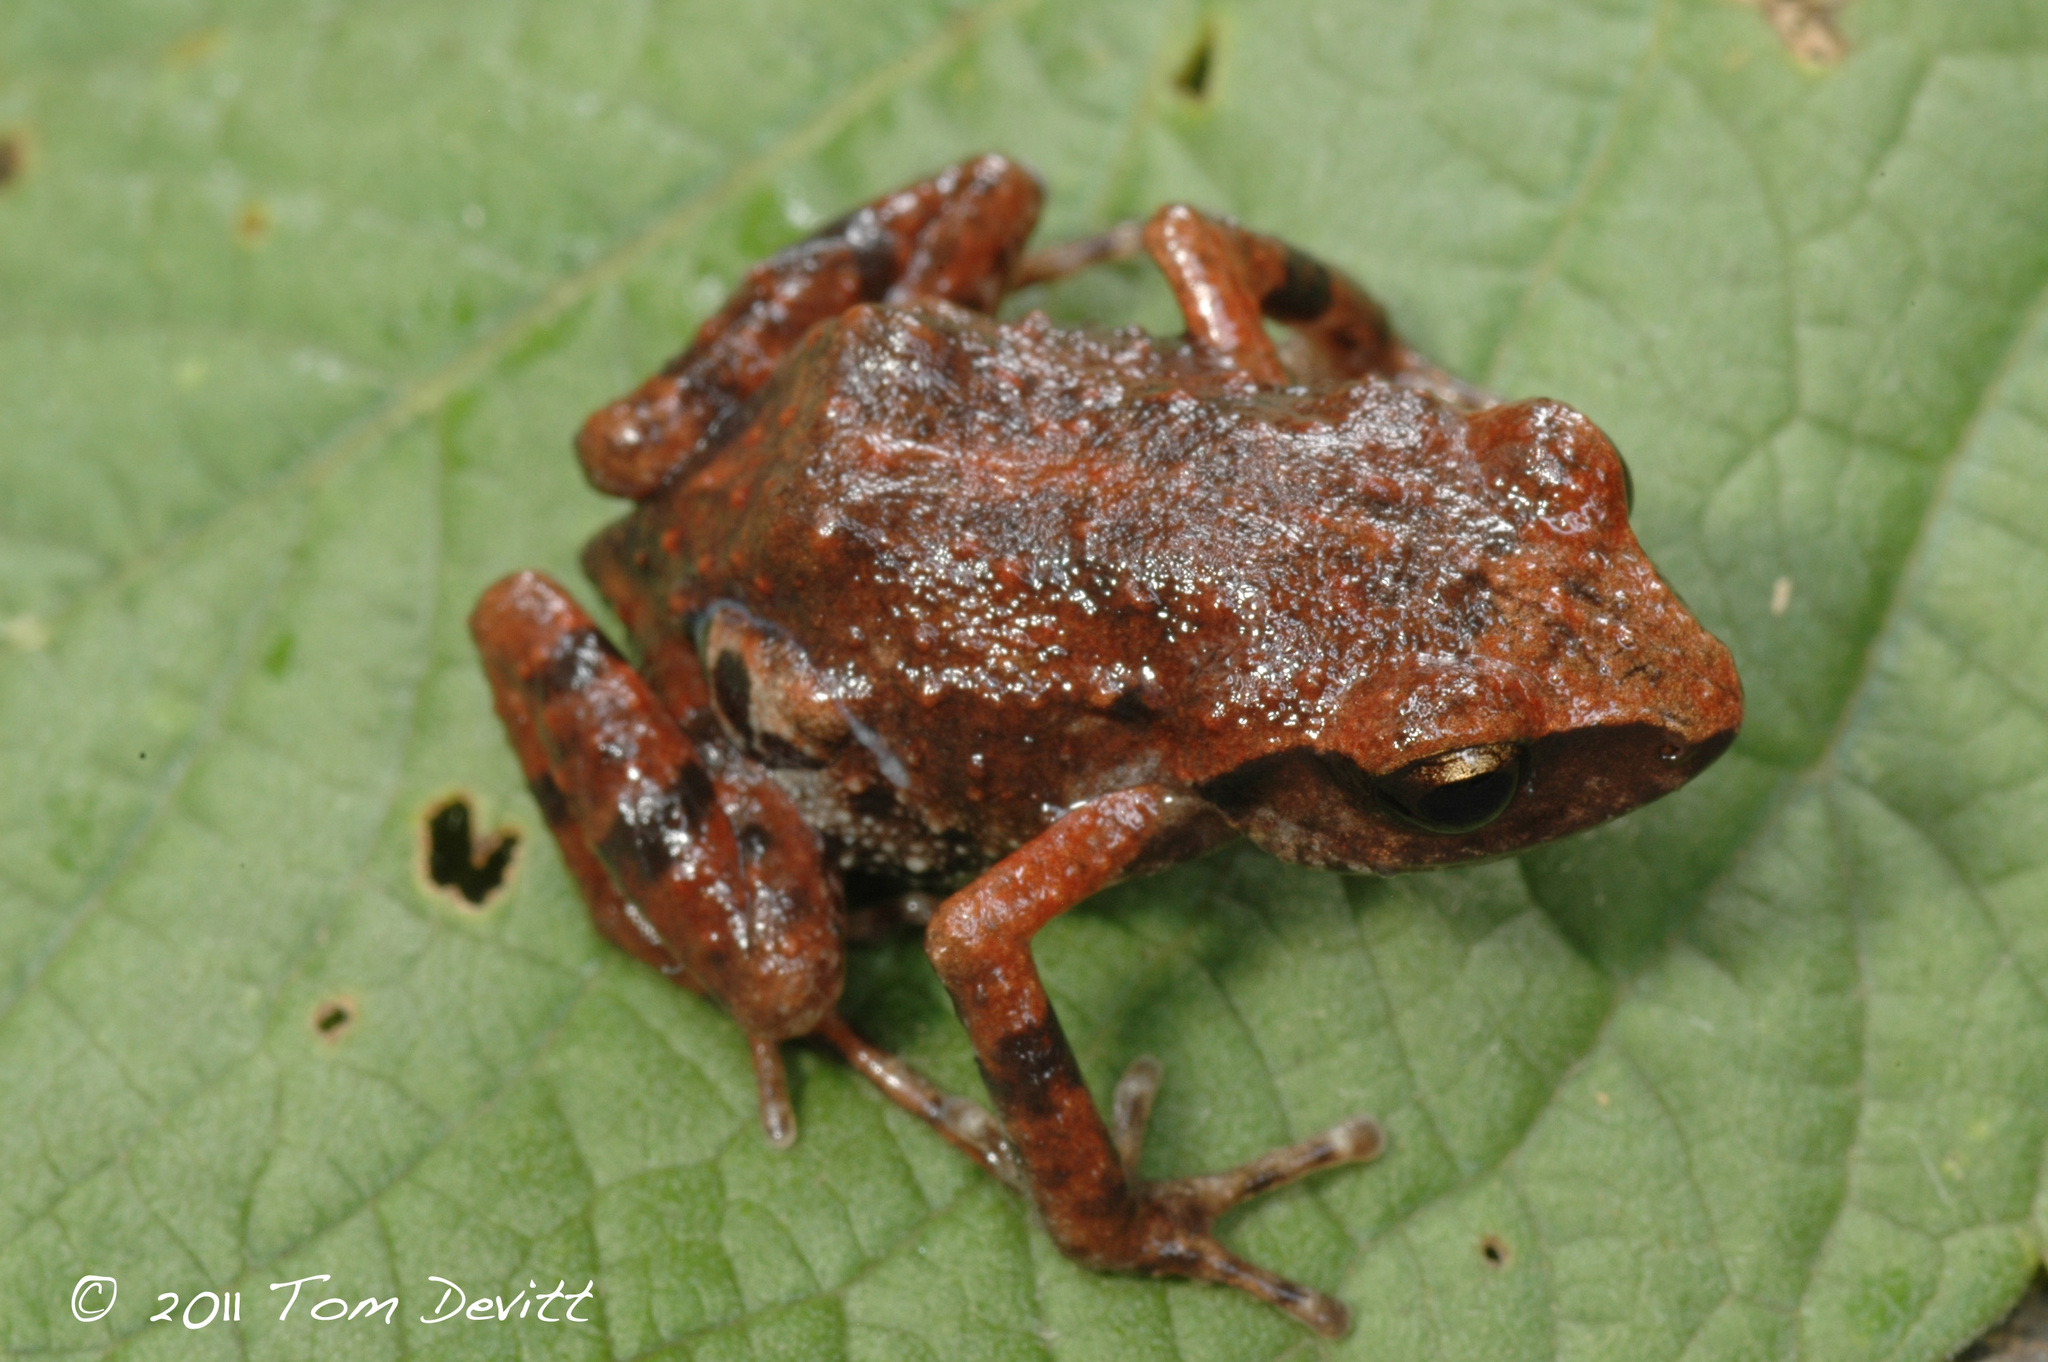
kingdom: Animalia
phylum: Chordata
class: Amphibia
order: Anura
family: Eleutherodactylidae
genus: Eleutherodactylus
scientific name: Eleutherodactylus maurus
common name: Dusky chirping frog
